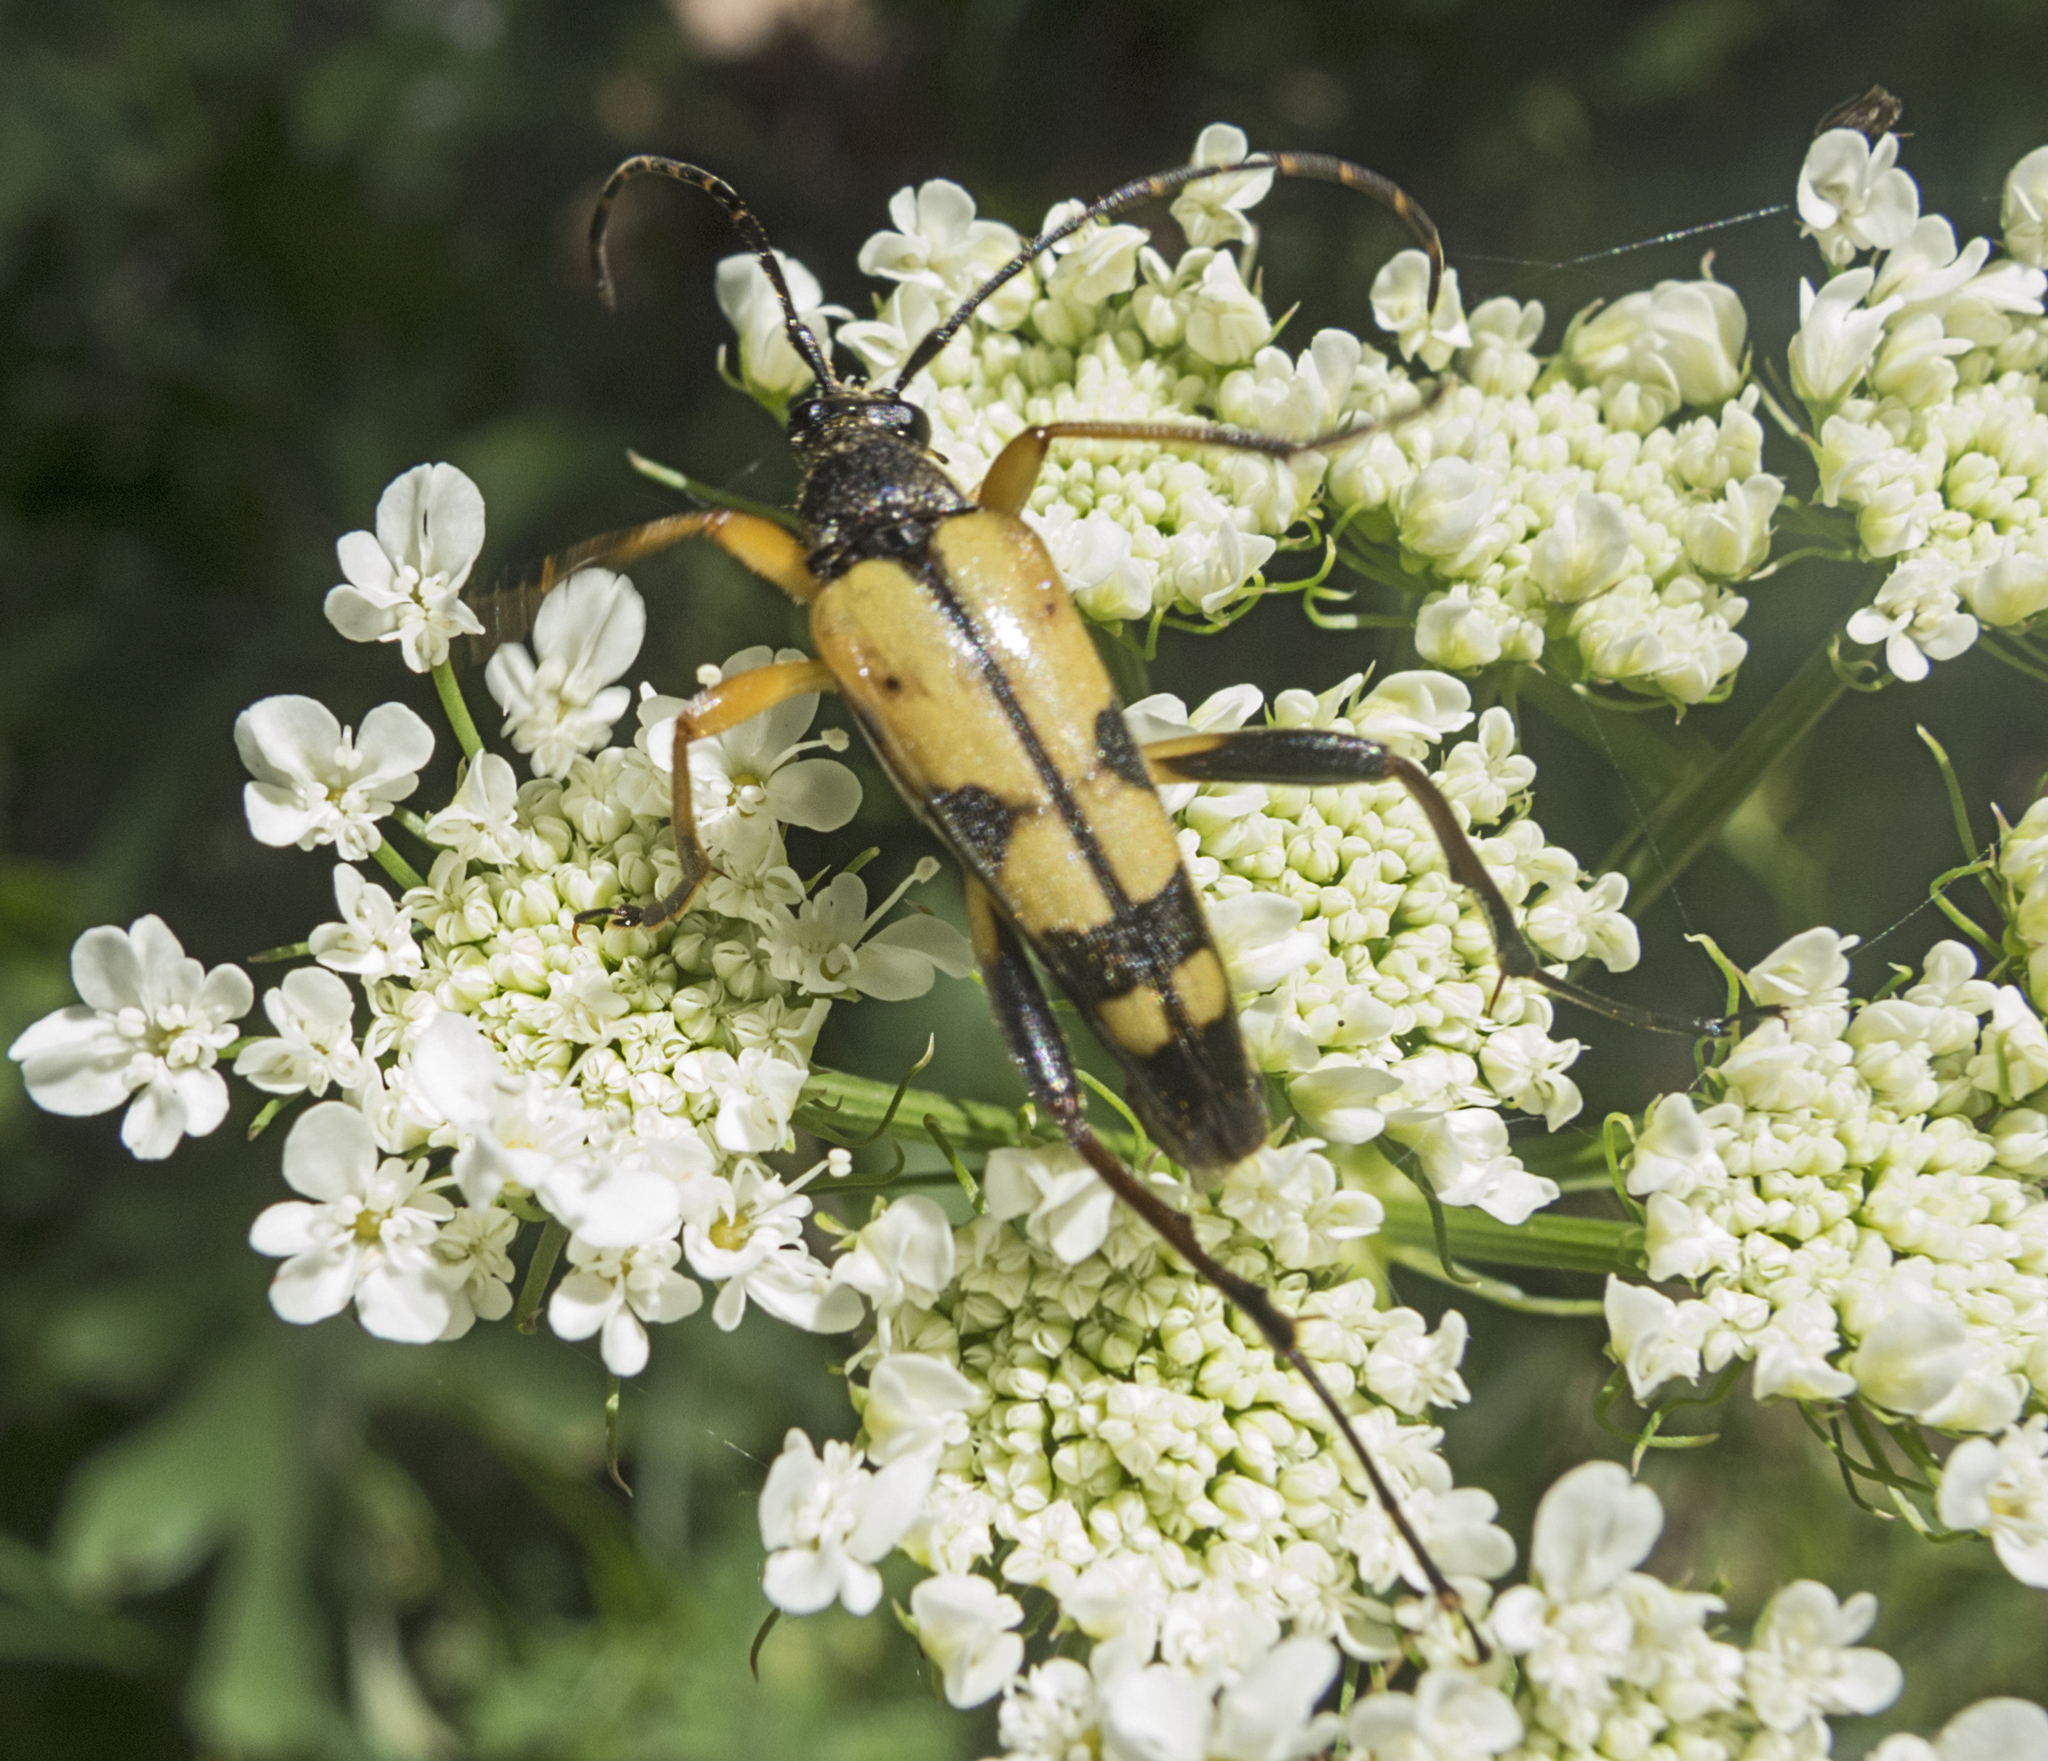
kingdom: Animalia
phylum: Arthropoda
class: Insecta
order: Coleoptera
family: Cerambycidae
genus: Rutpela
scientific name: Rutpela maculata
